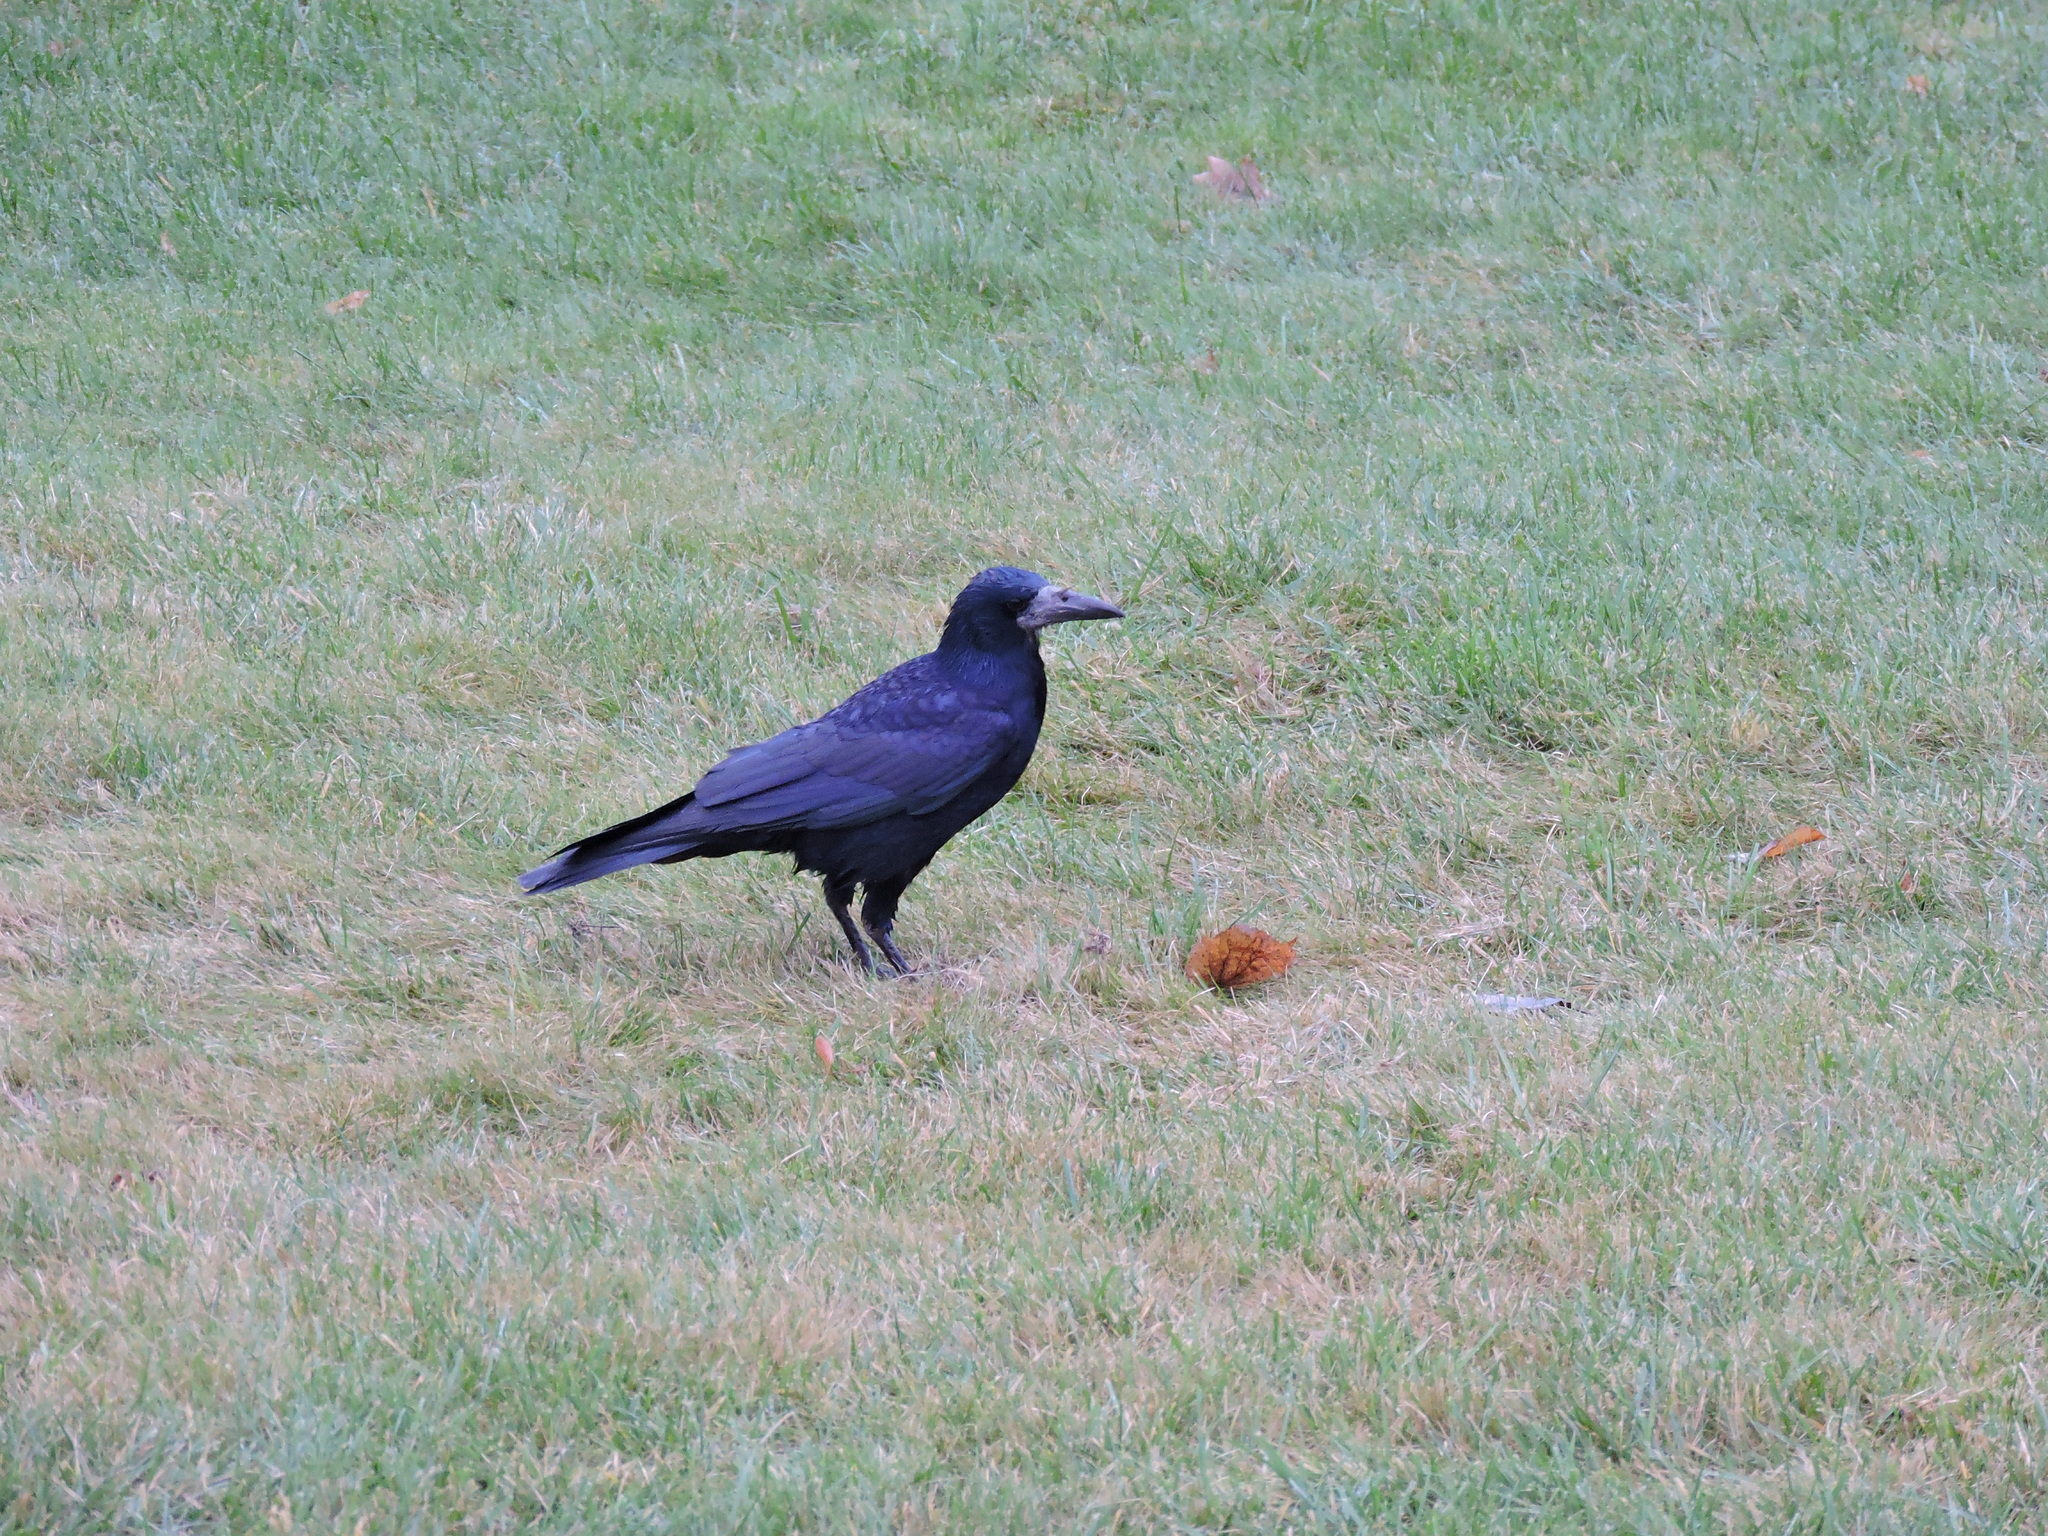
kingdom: Animalia
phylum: Chordata
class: Aves
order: Passeriformes
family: Corvidae
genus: Corvus
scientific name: Corvus frugilegus
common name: Rook
